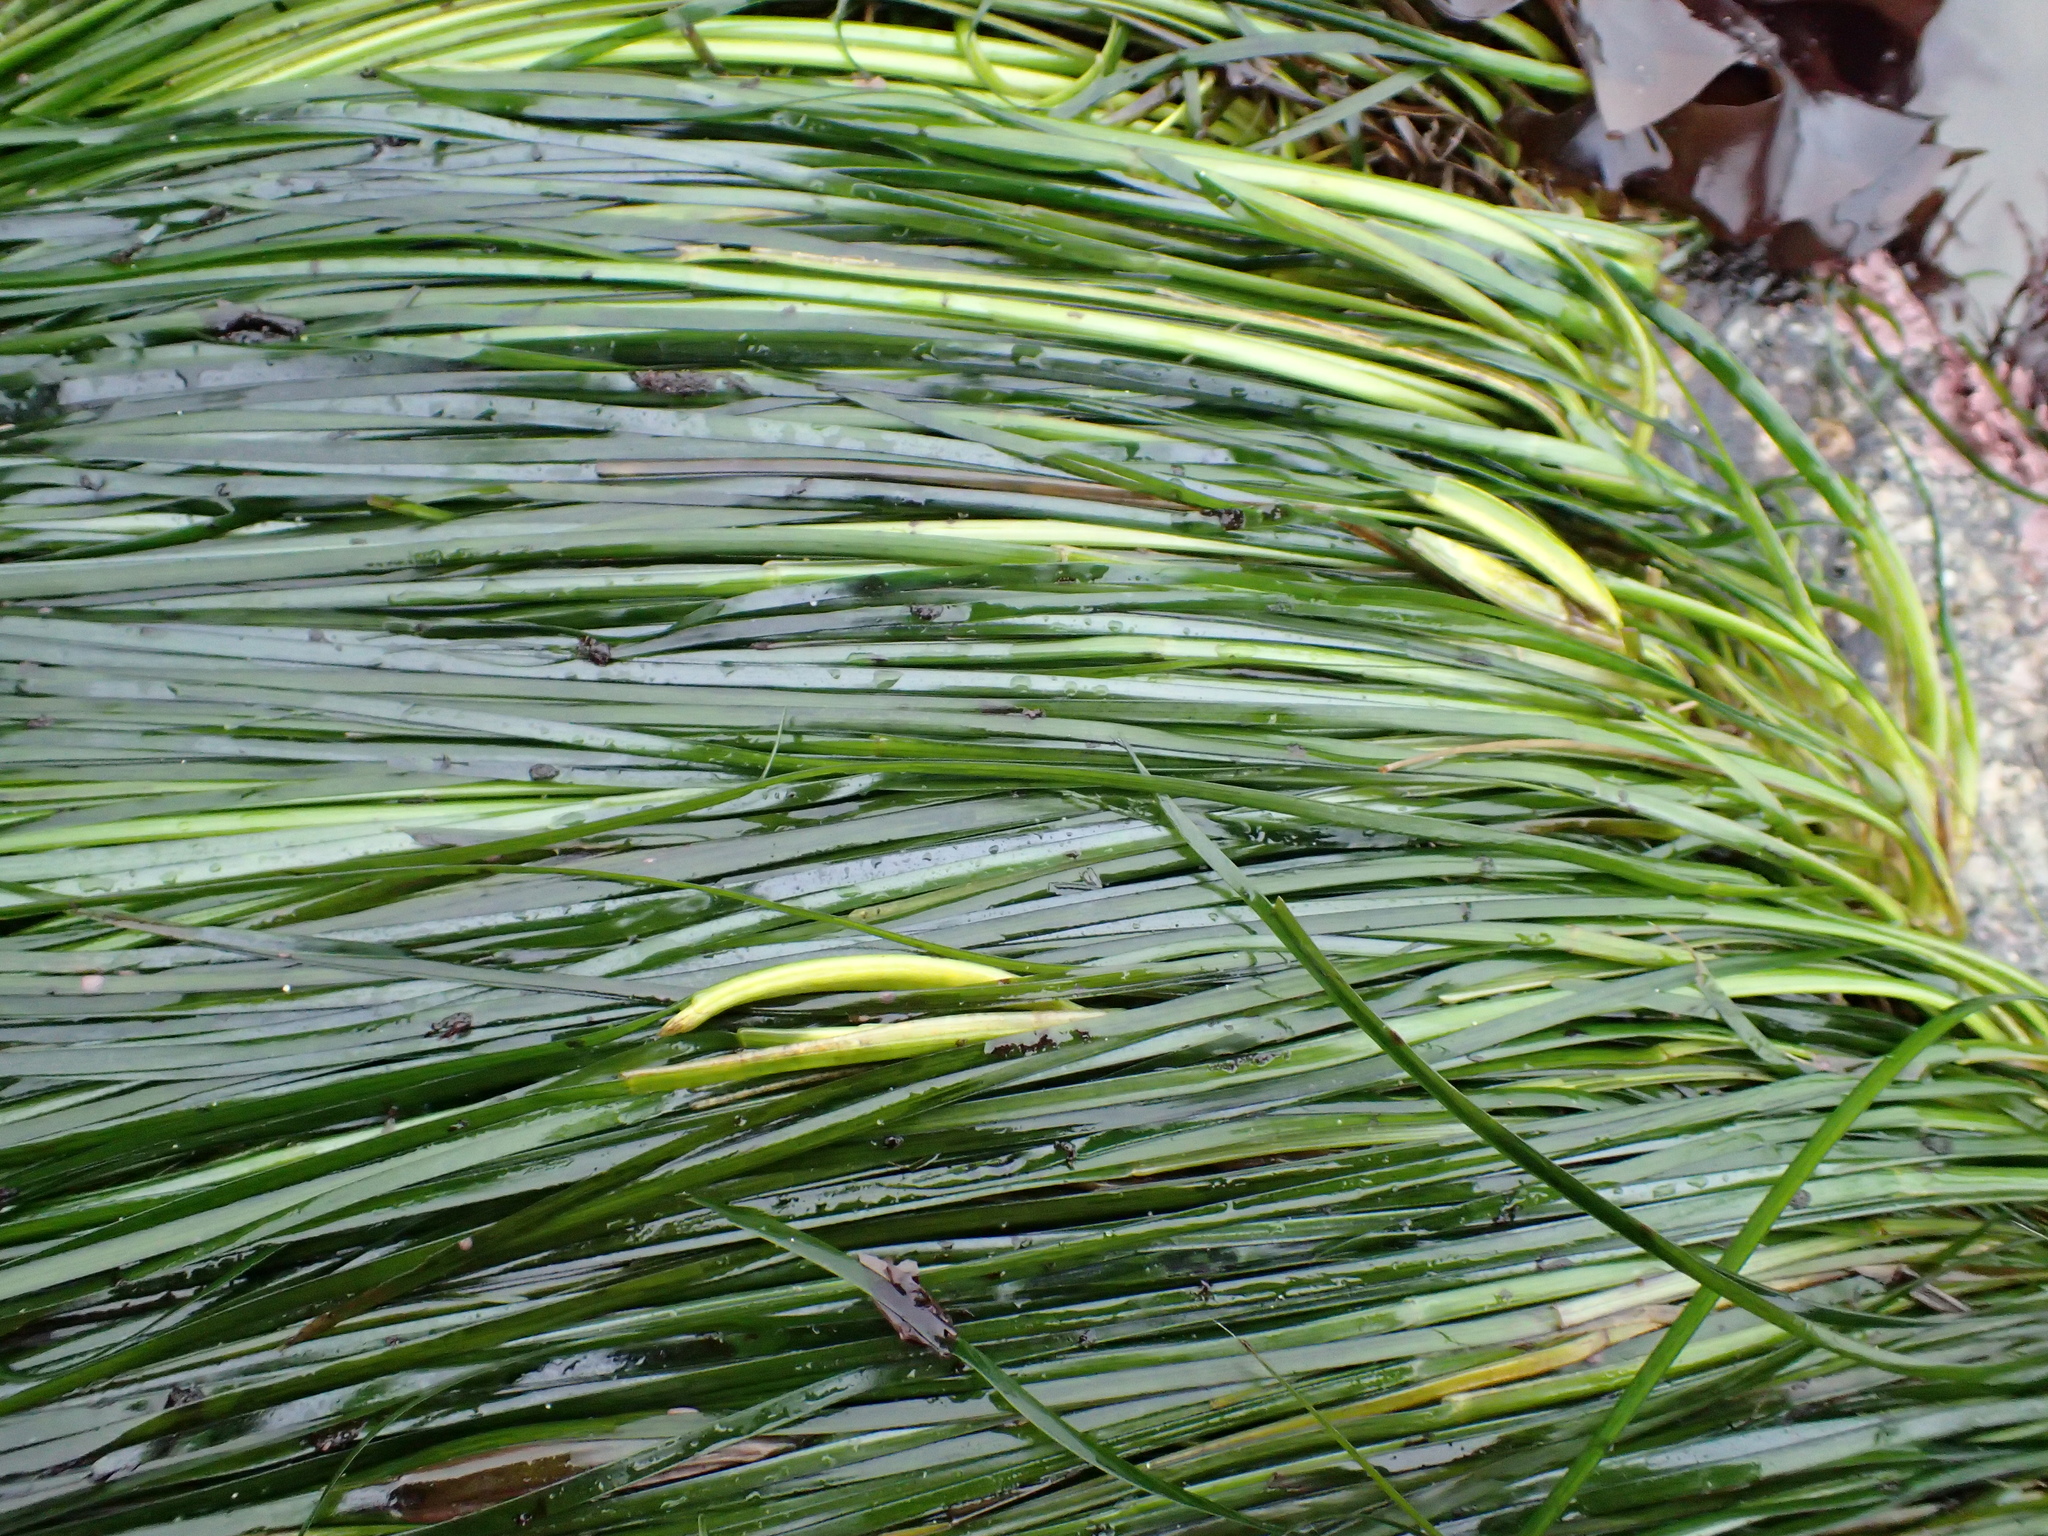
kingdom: Plantae
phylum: Tracheophyta
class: Liliopsida
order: Alismatales
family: Zosteraceae
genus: Phyllospadix
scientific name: Phyllospadix scouleri
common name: Species code: ps
